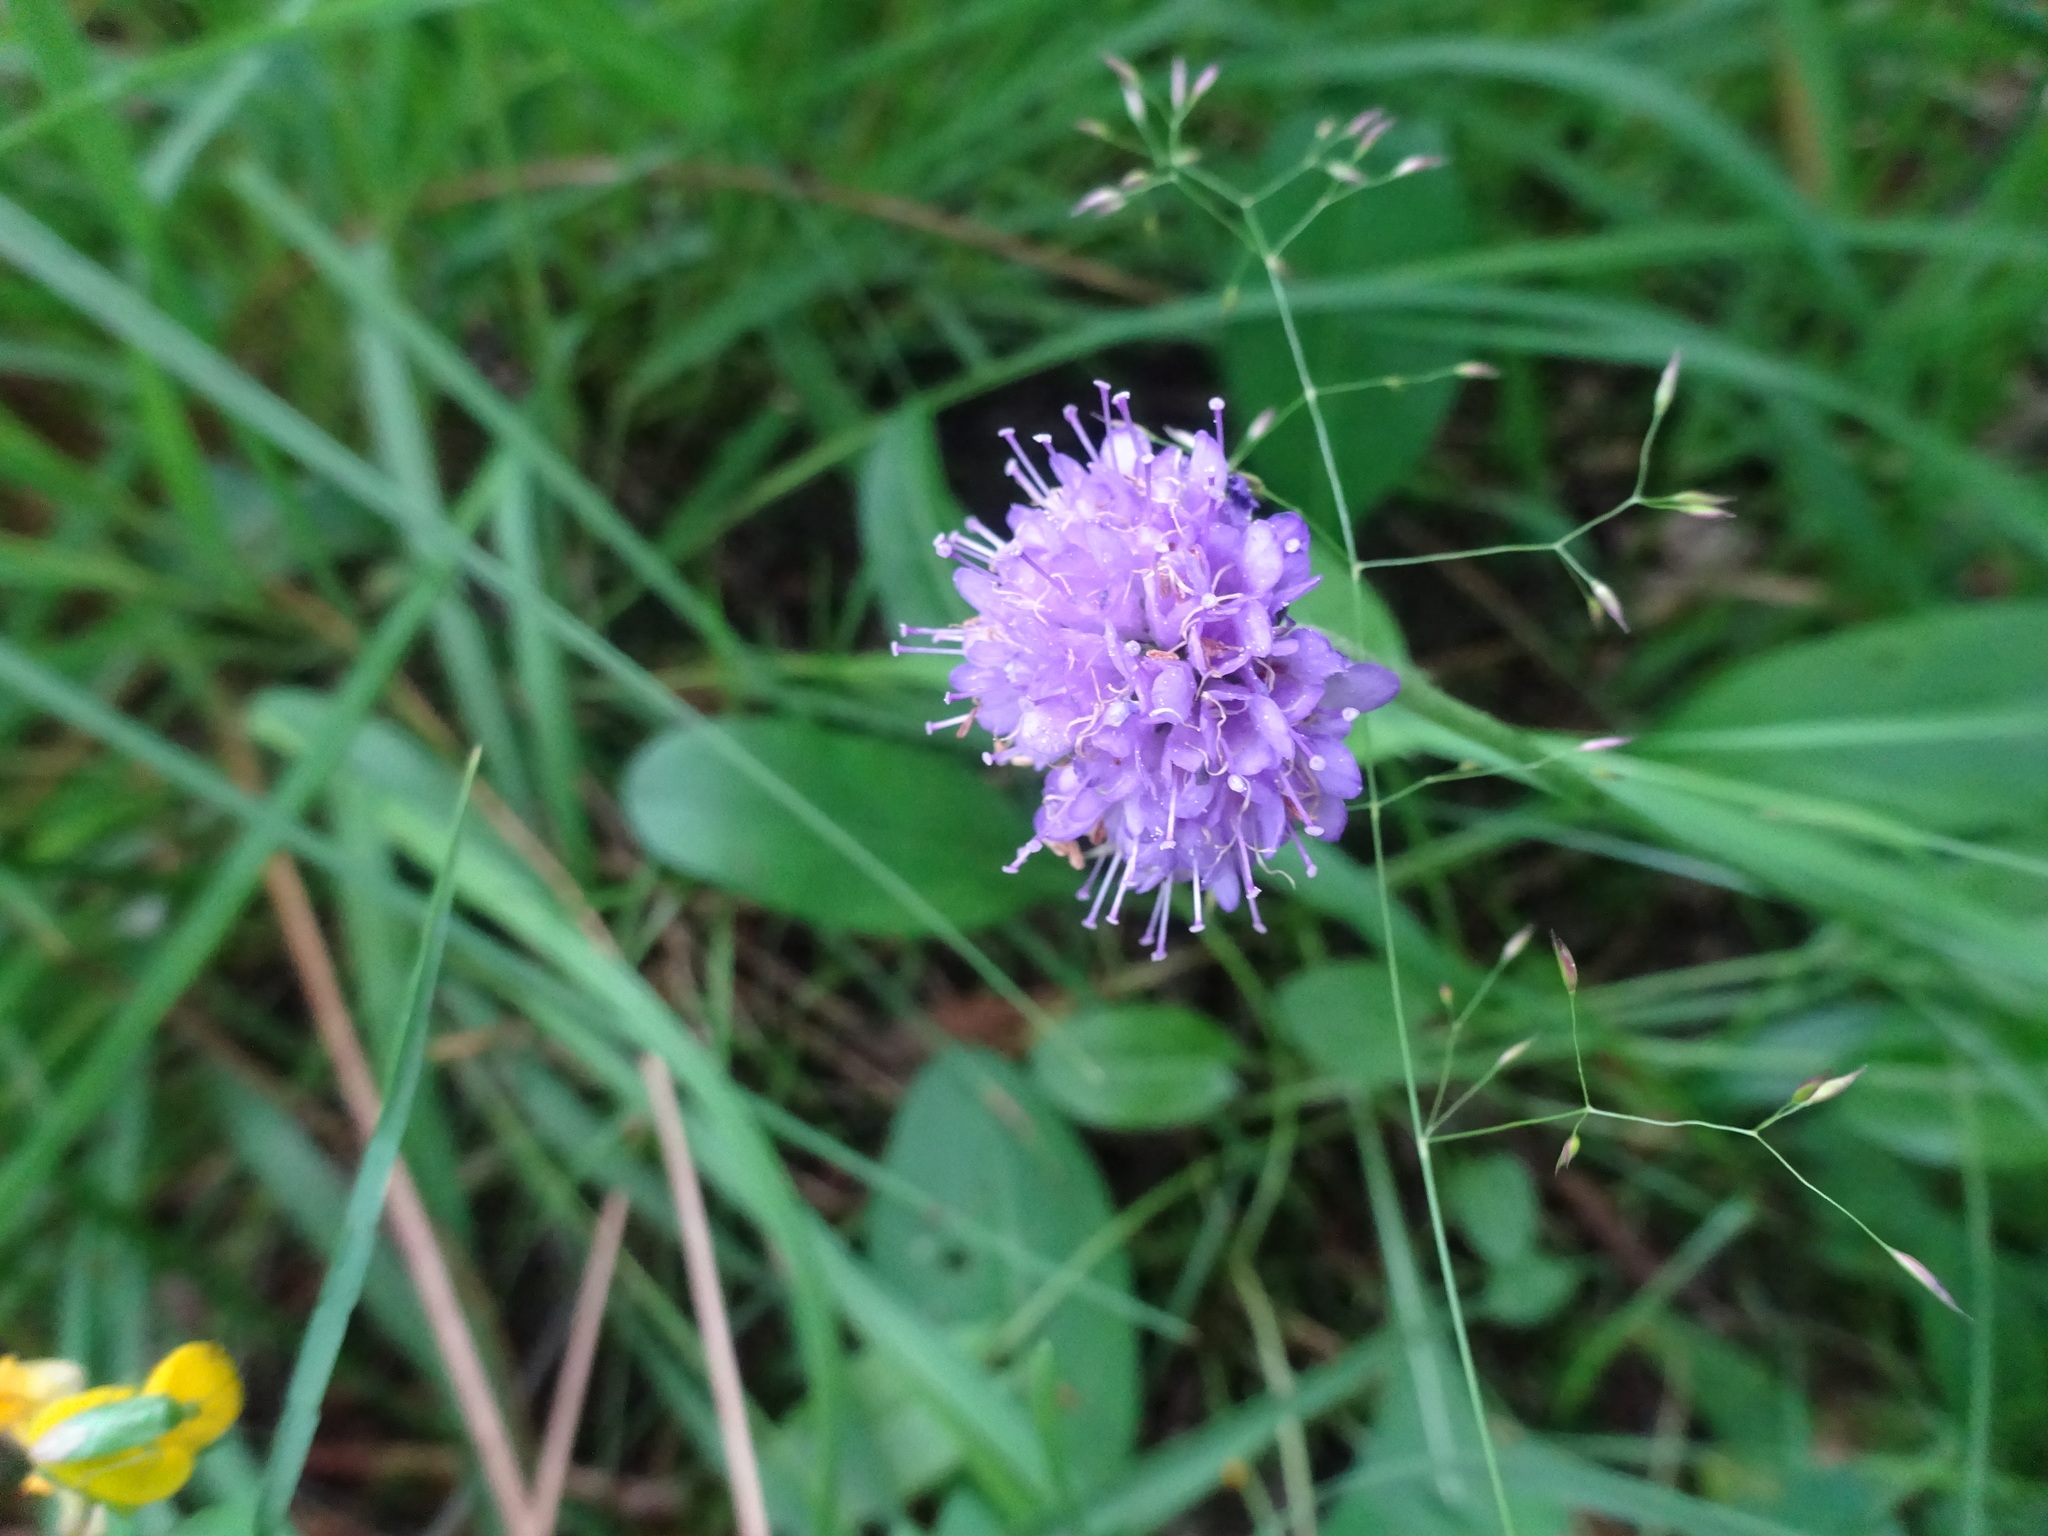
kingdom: Plantae
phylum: Tracheophyta
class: Magnoliopsida
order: Dipsacales
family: Caprifoliaceae
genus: Succisa
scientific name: Succisa pratensis
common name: Devil's-bit
